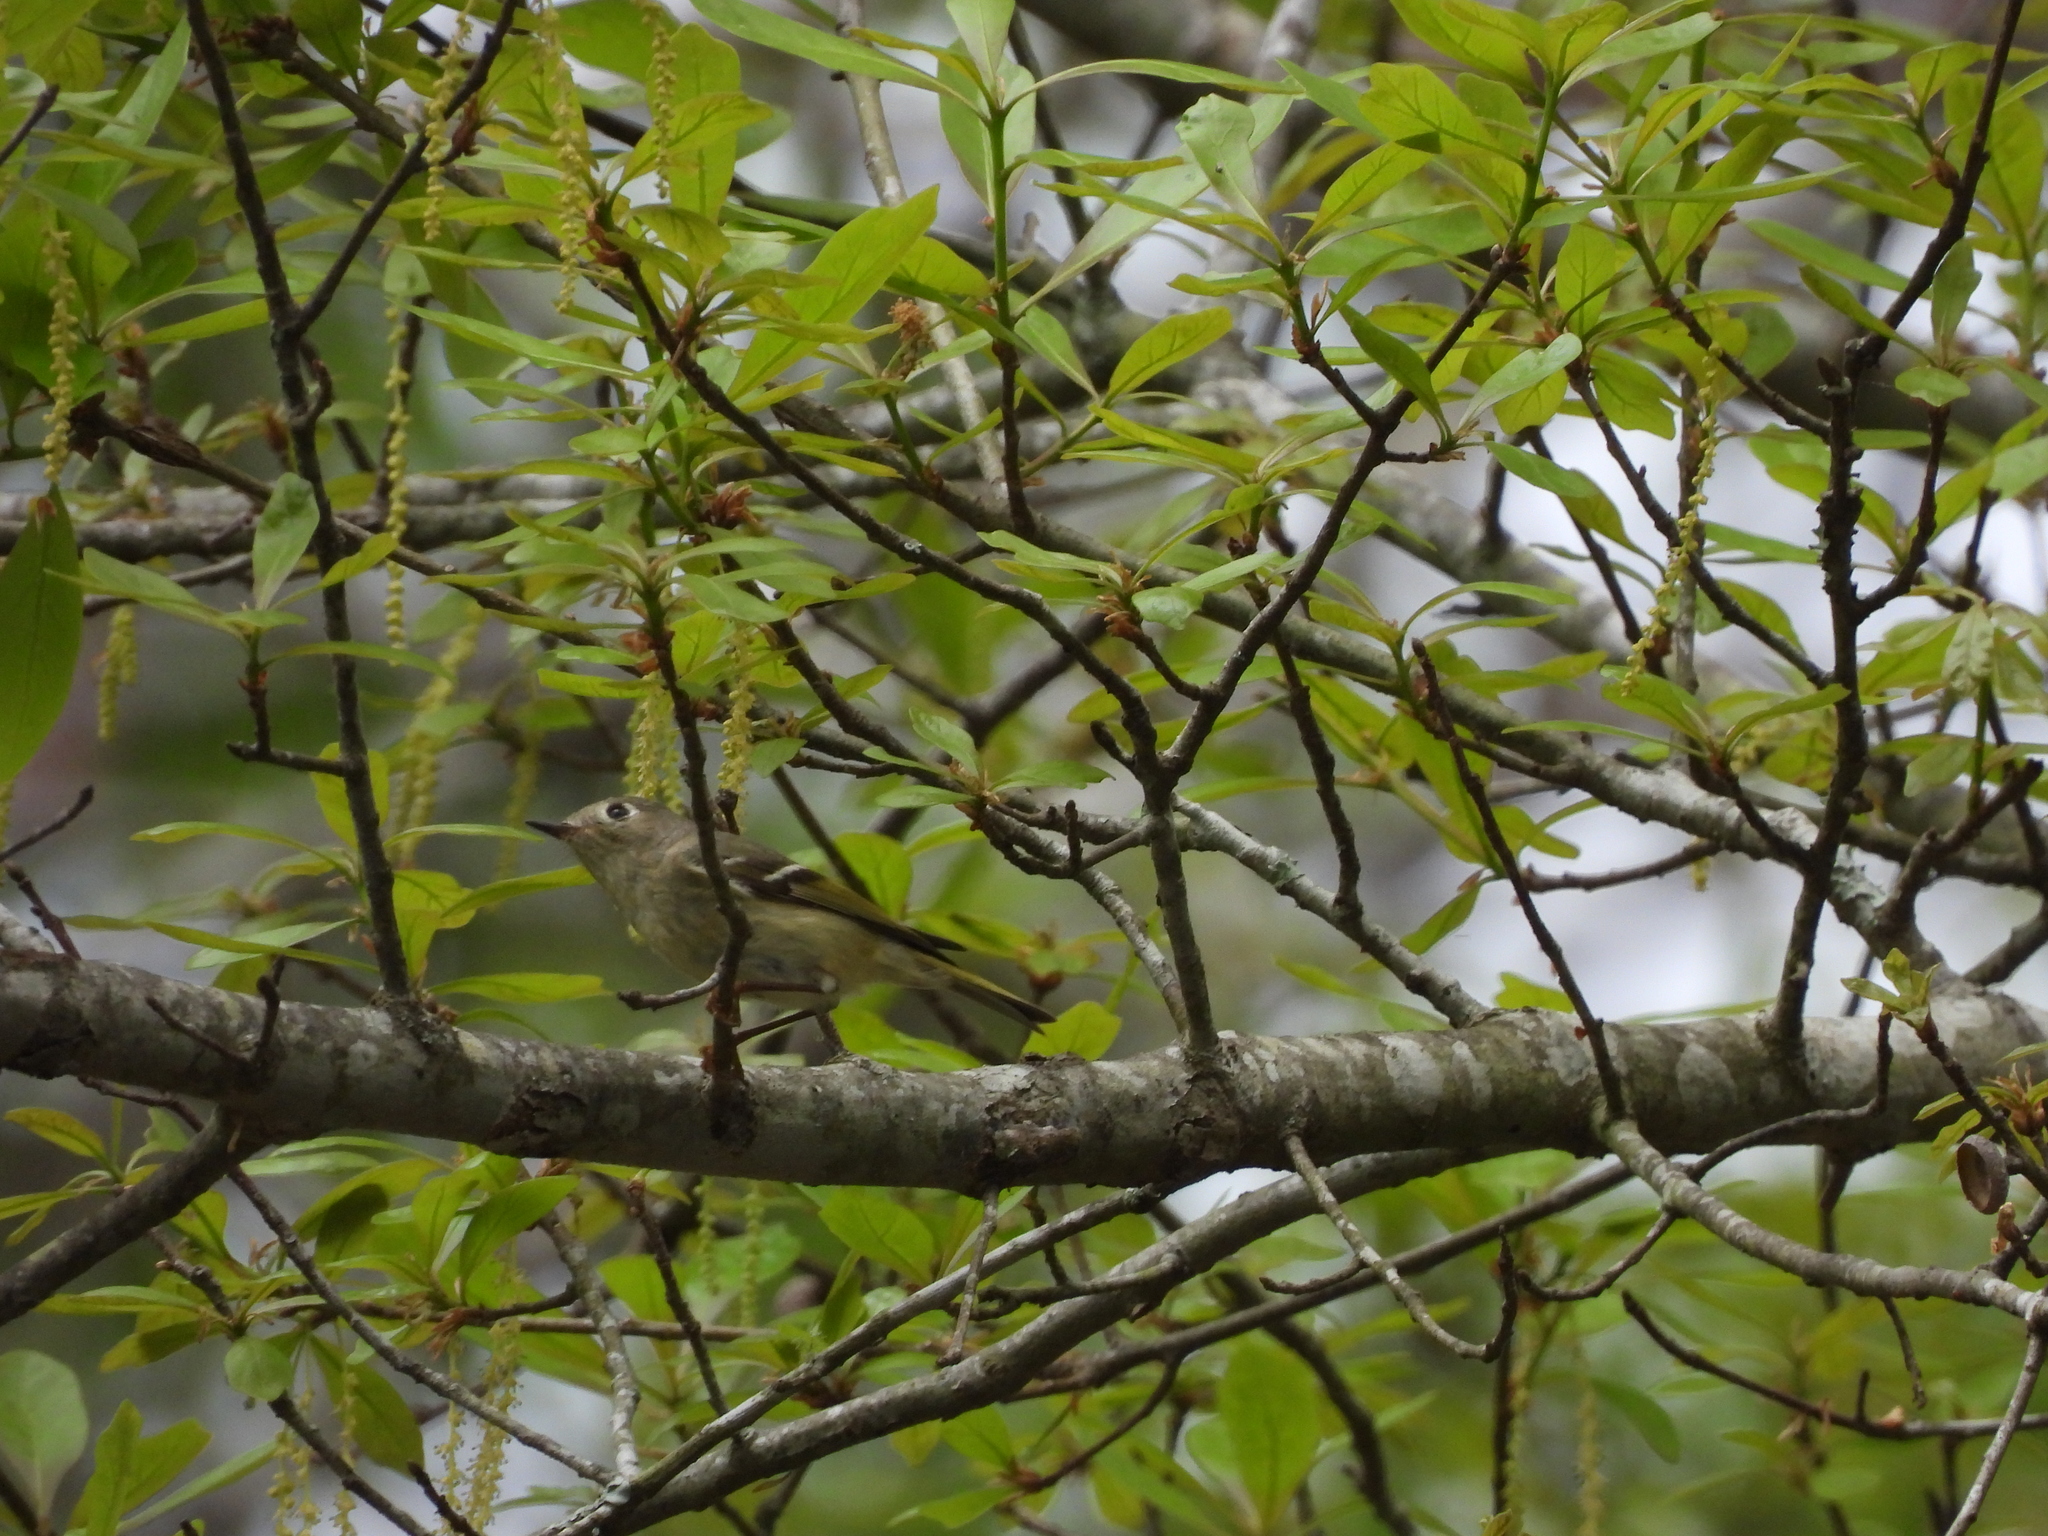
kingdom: Animalia
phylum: Chordata
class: Aves
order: Passeriformes
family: Regulidae
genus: Regulus
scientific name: Regulus calendula
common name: Ruby-crowned kinglet
